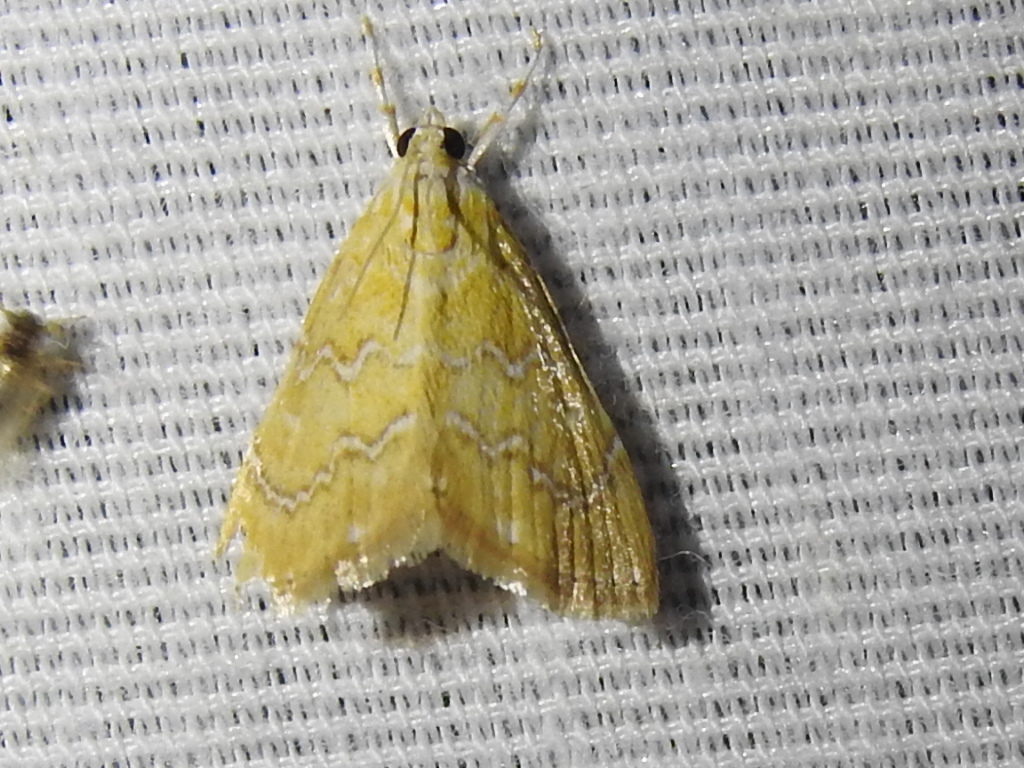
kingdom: Animalia
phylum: Arthropoda
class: Insecta
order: Lepidoptera
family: Crambidae
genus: Glaphyria
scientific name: Glaphyria sesquistrialis
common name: White-roped glaphyria
